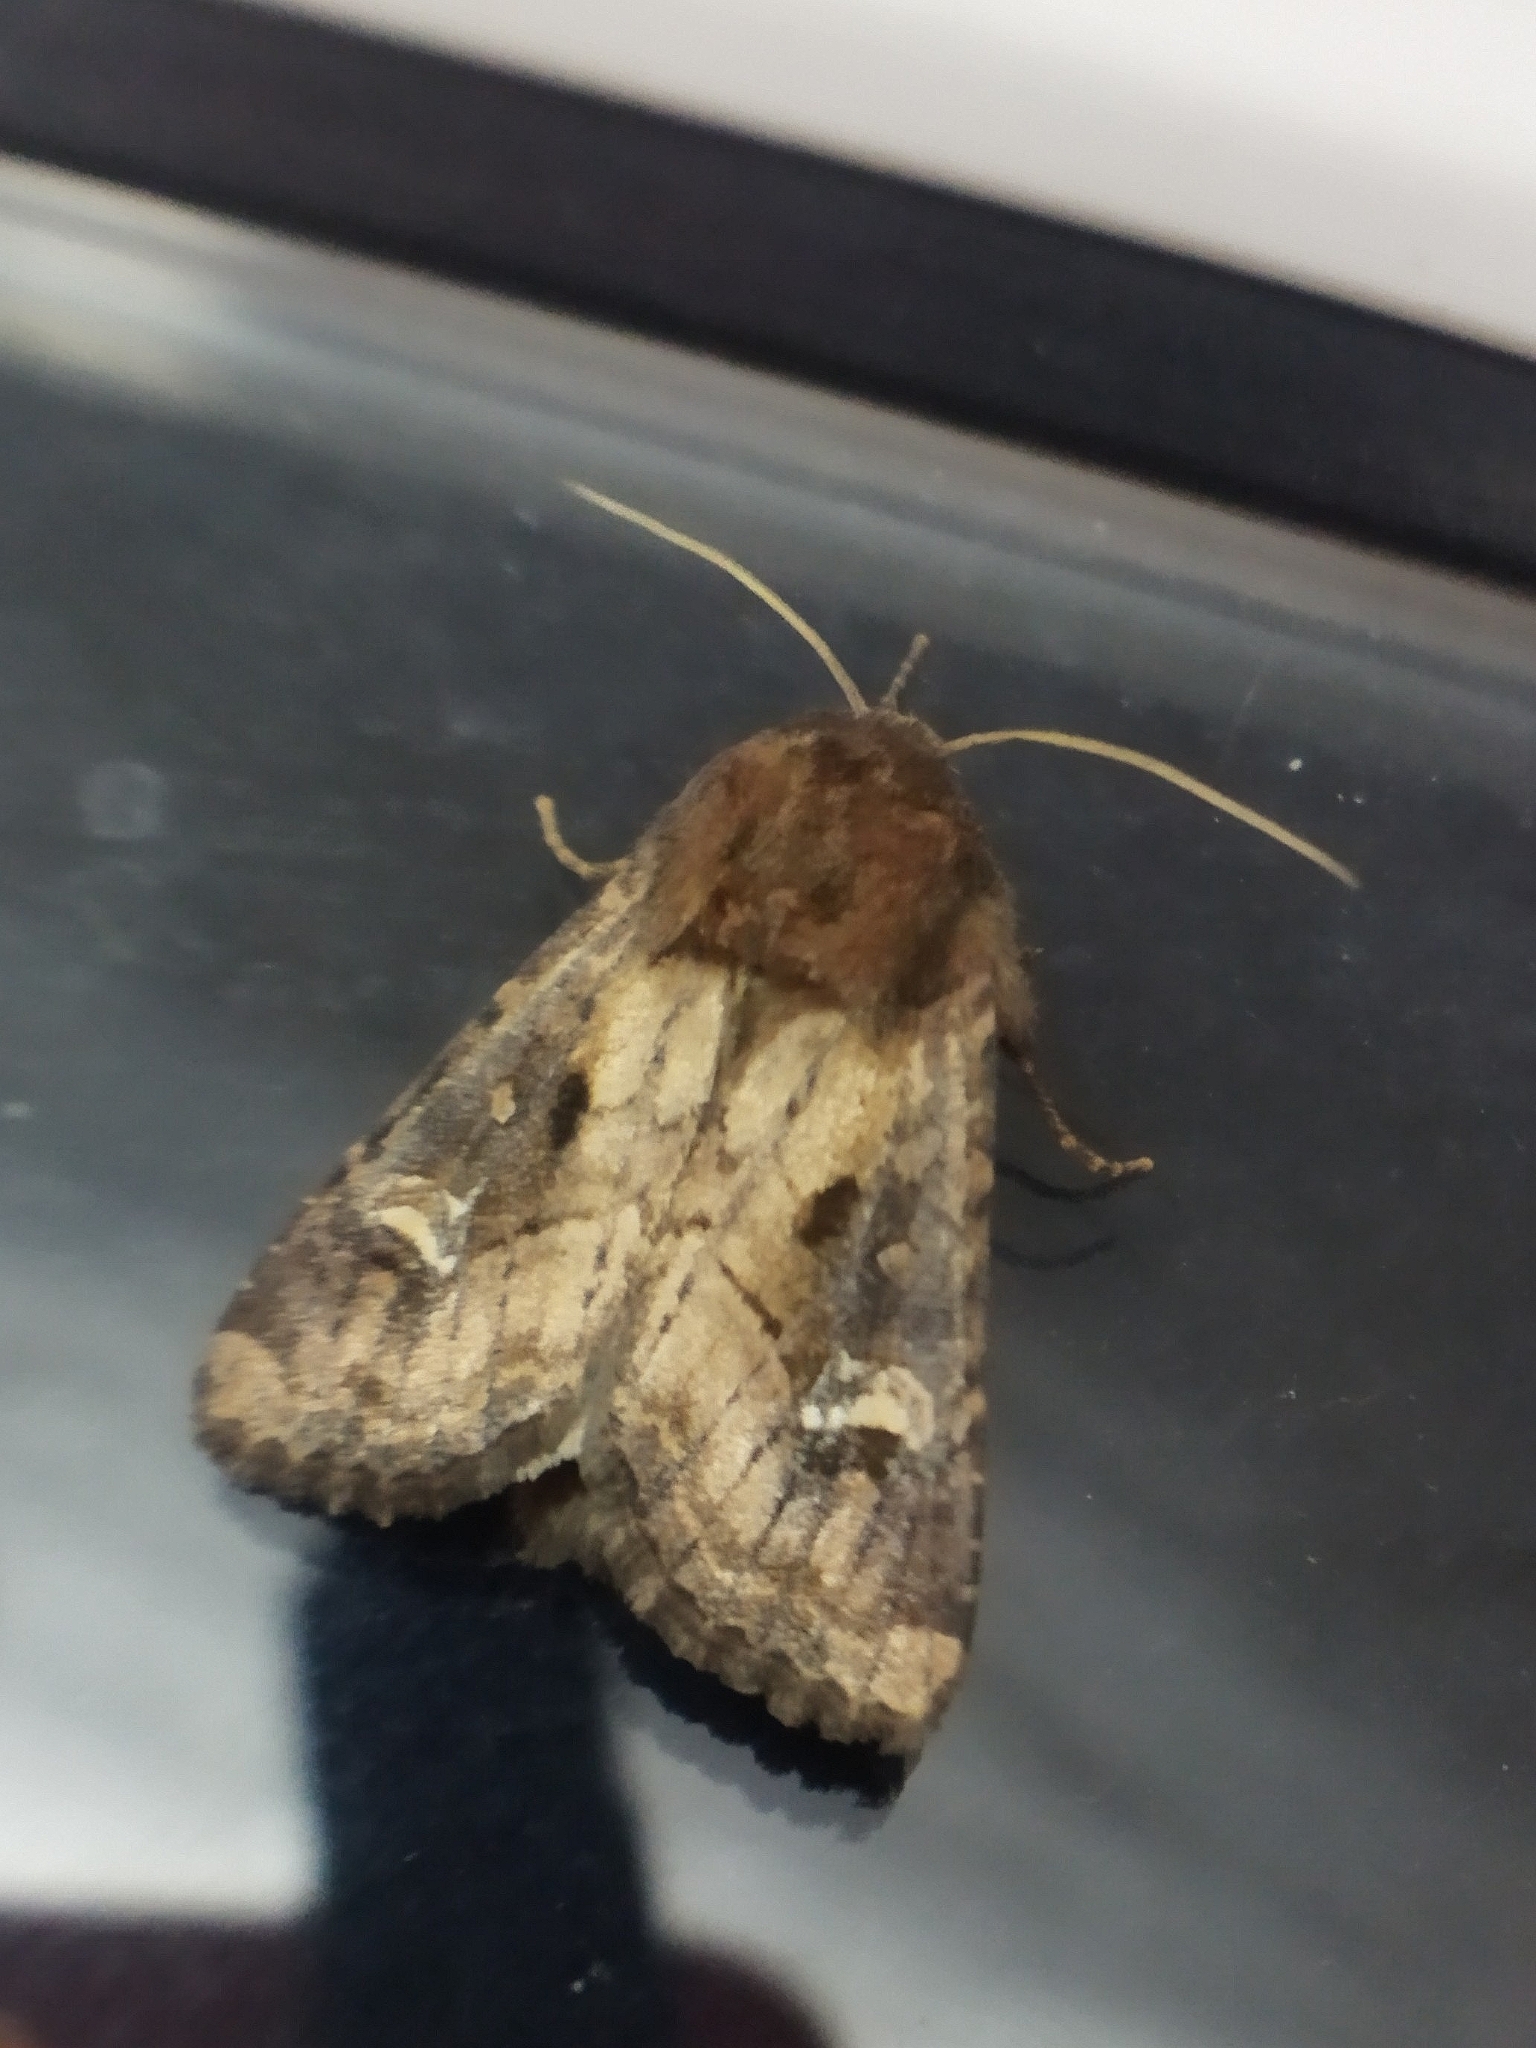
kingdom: Animalia
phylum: Arthropoda
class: Insecta
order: Lepidoptera
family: Noctuidae
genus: Resapamea
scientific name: Resapamea hedeni
